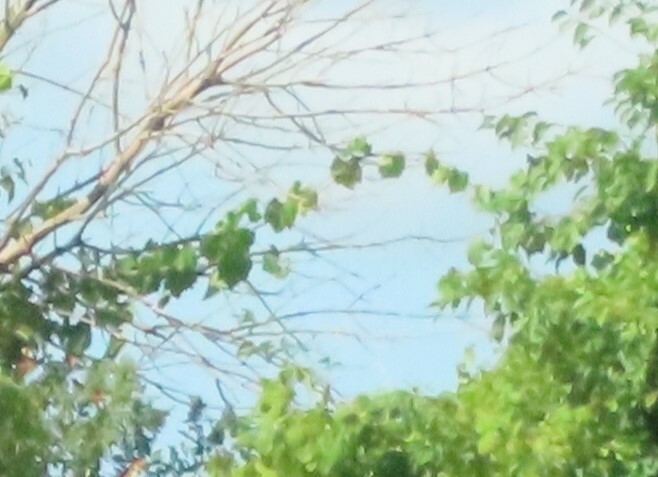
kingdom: Plantae
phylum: Tracheophyta
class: Magnoliopsida
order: Vitales
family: Vitaceae
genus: Vitis
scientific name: Vitis riparia
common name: Frost grape
